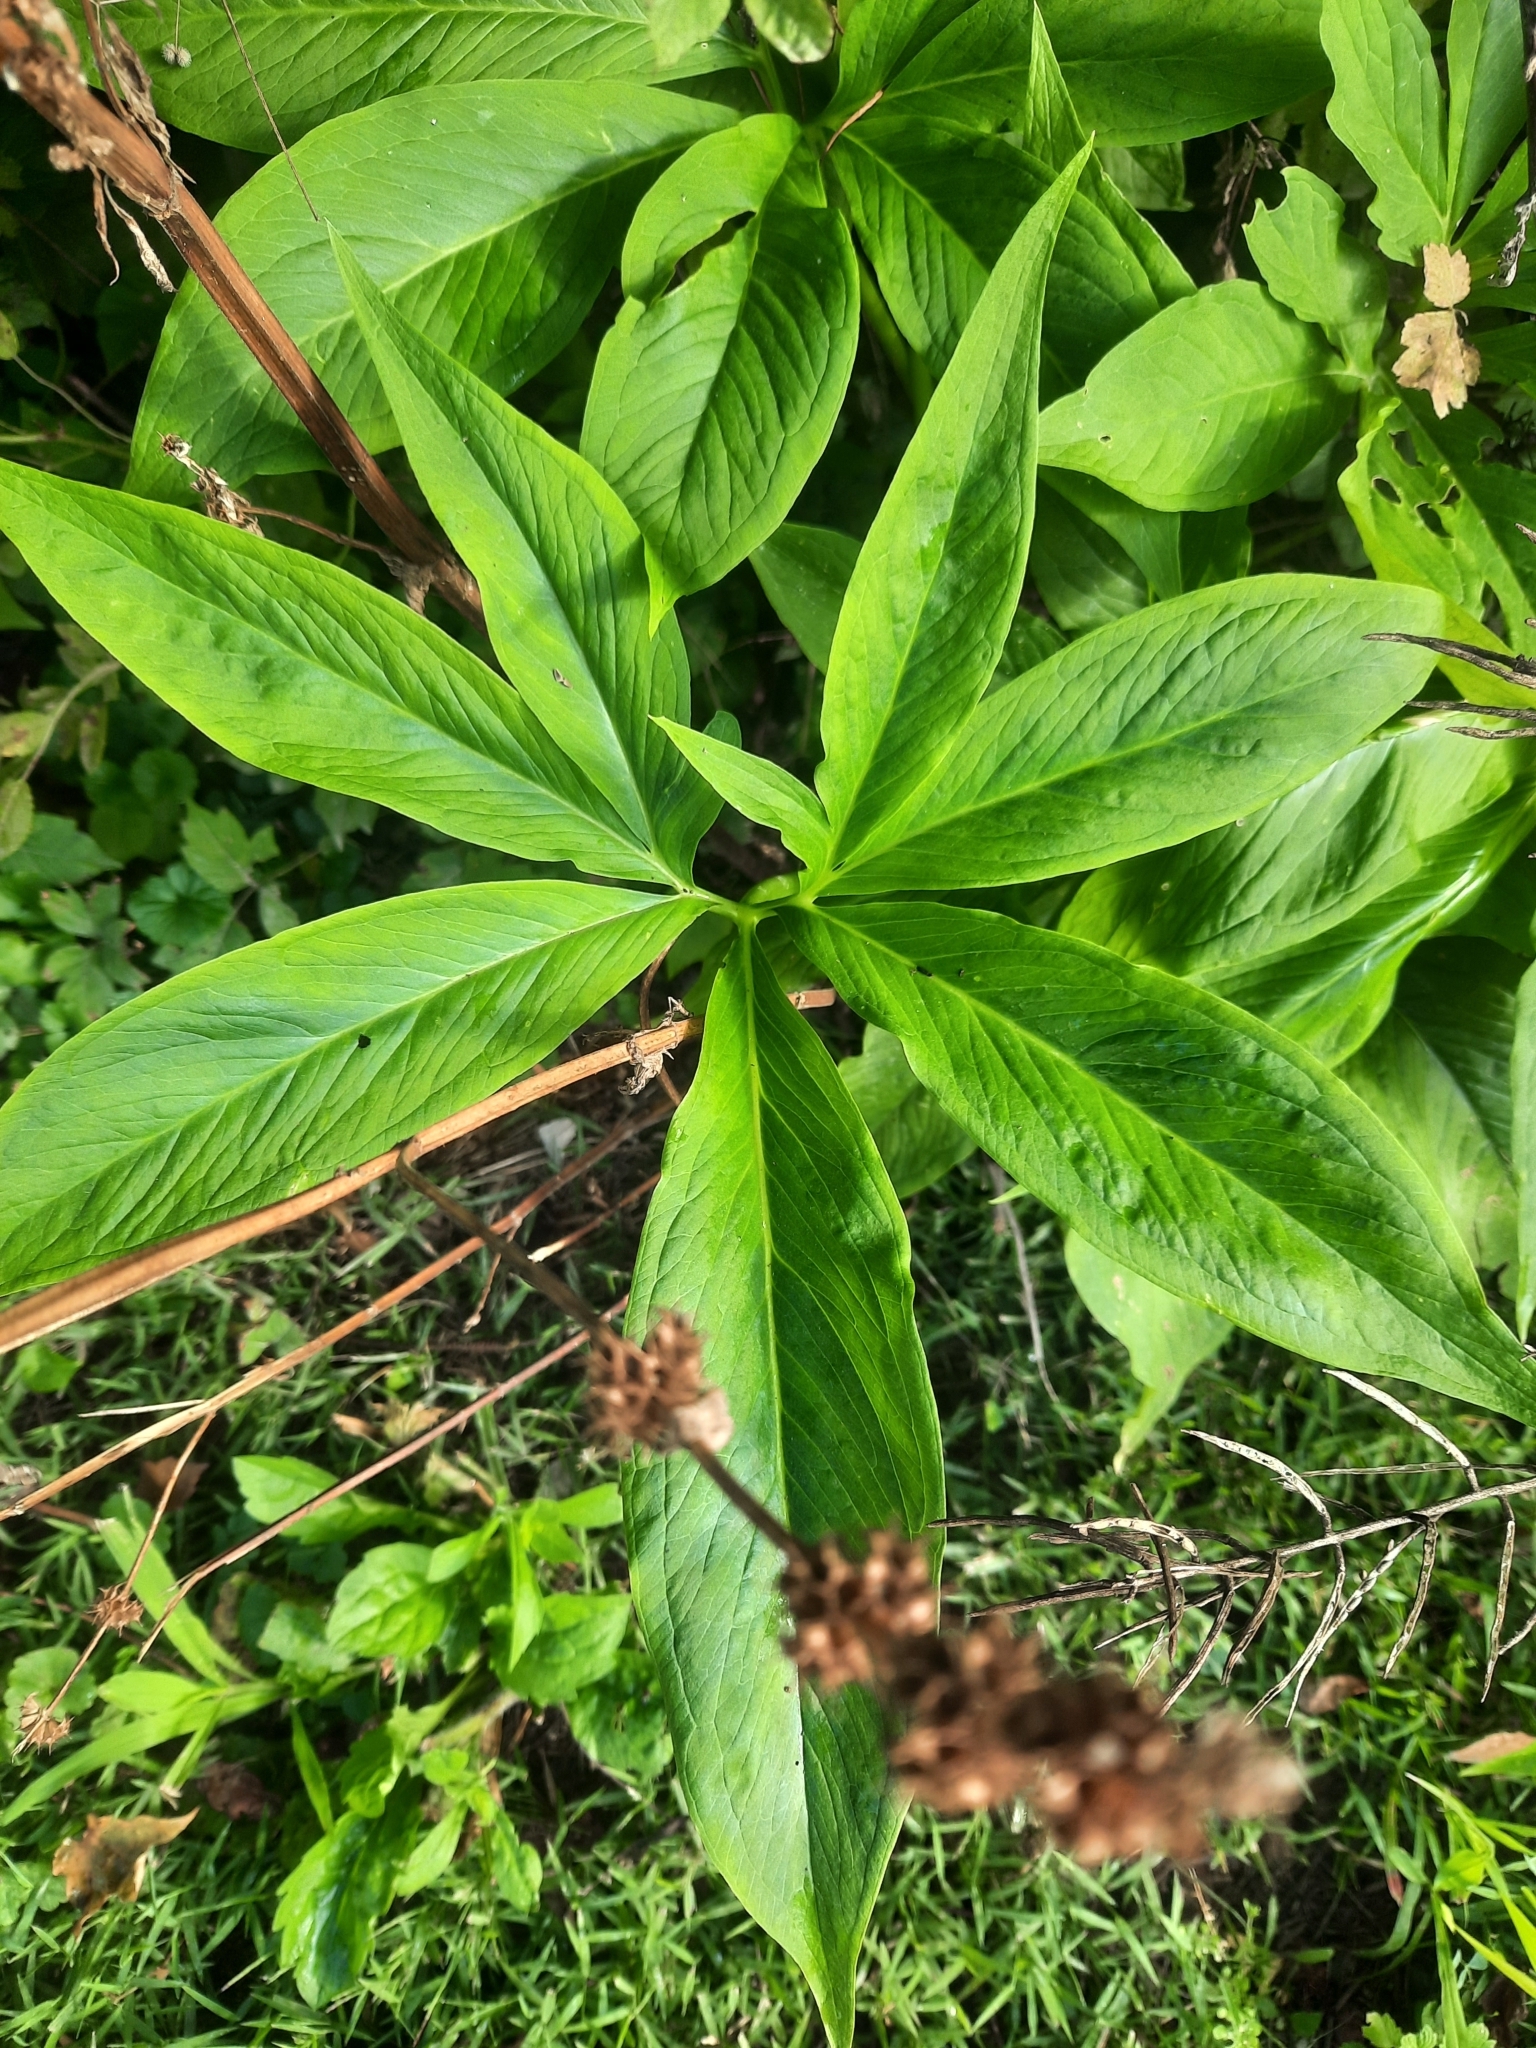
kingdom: Plantae
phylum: Tracheophyta
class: Liliopsida
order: Alismatales
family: Araceae
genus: Arisaema
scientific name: Arisaema dracontium
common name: Dragon-arum
